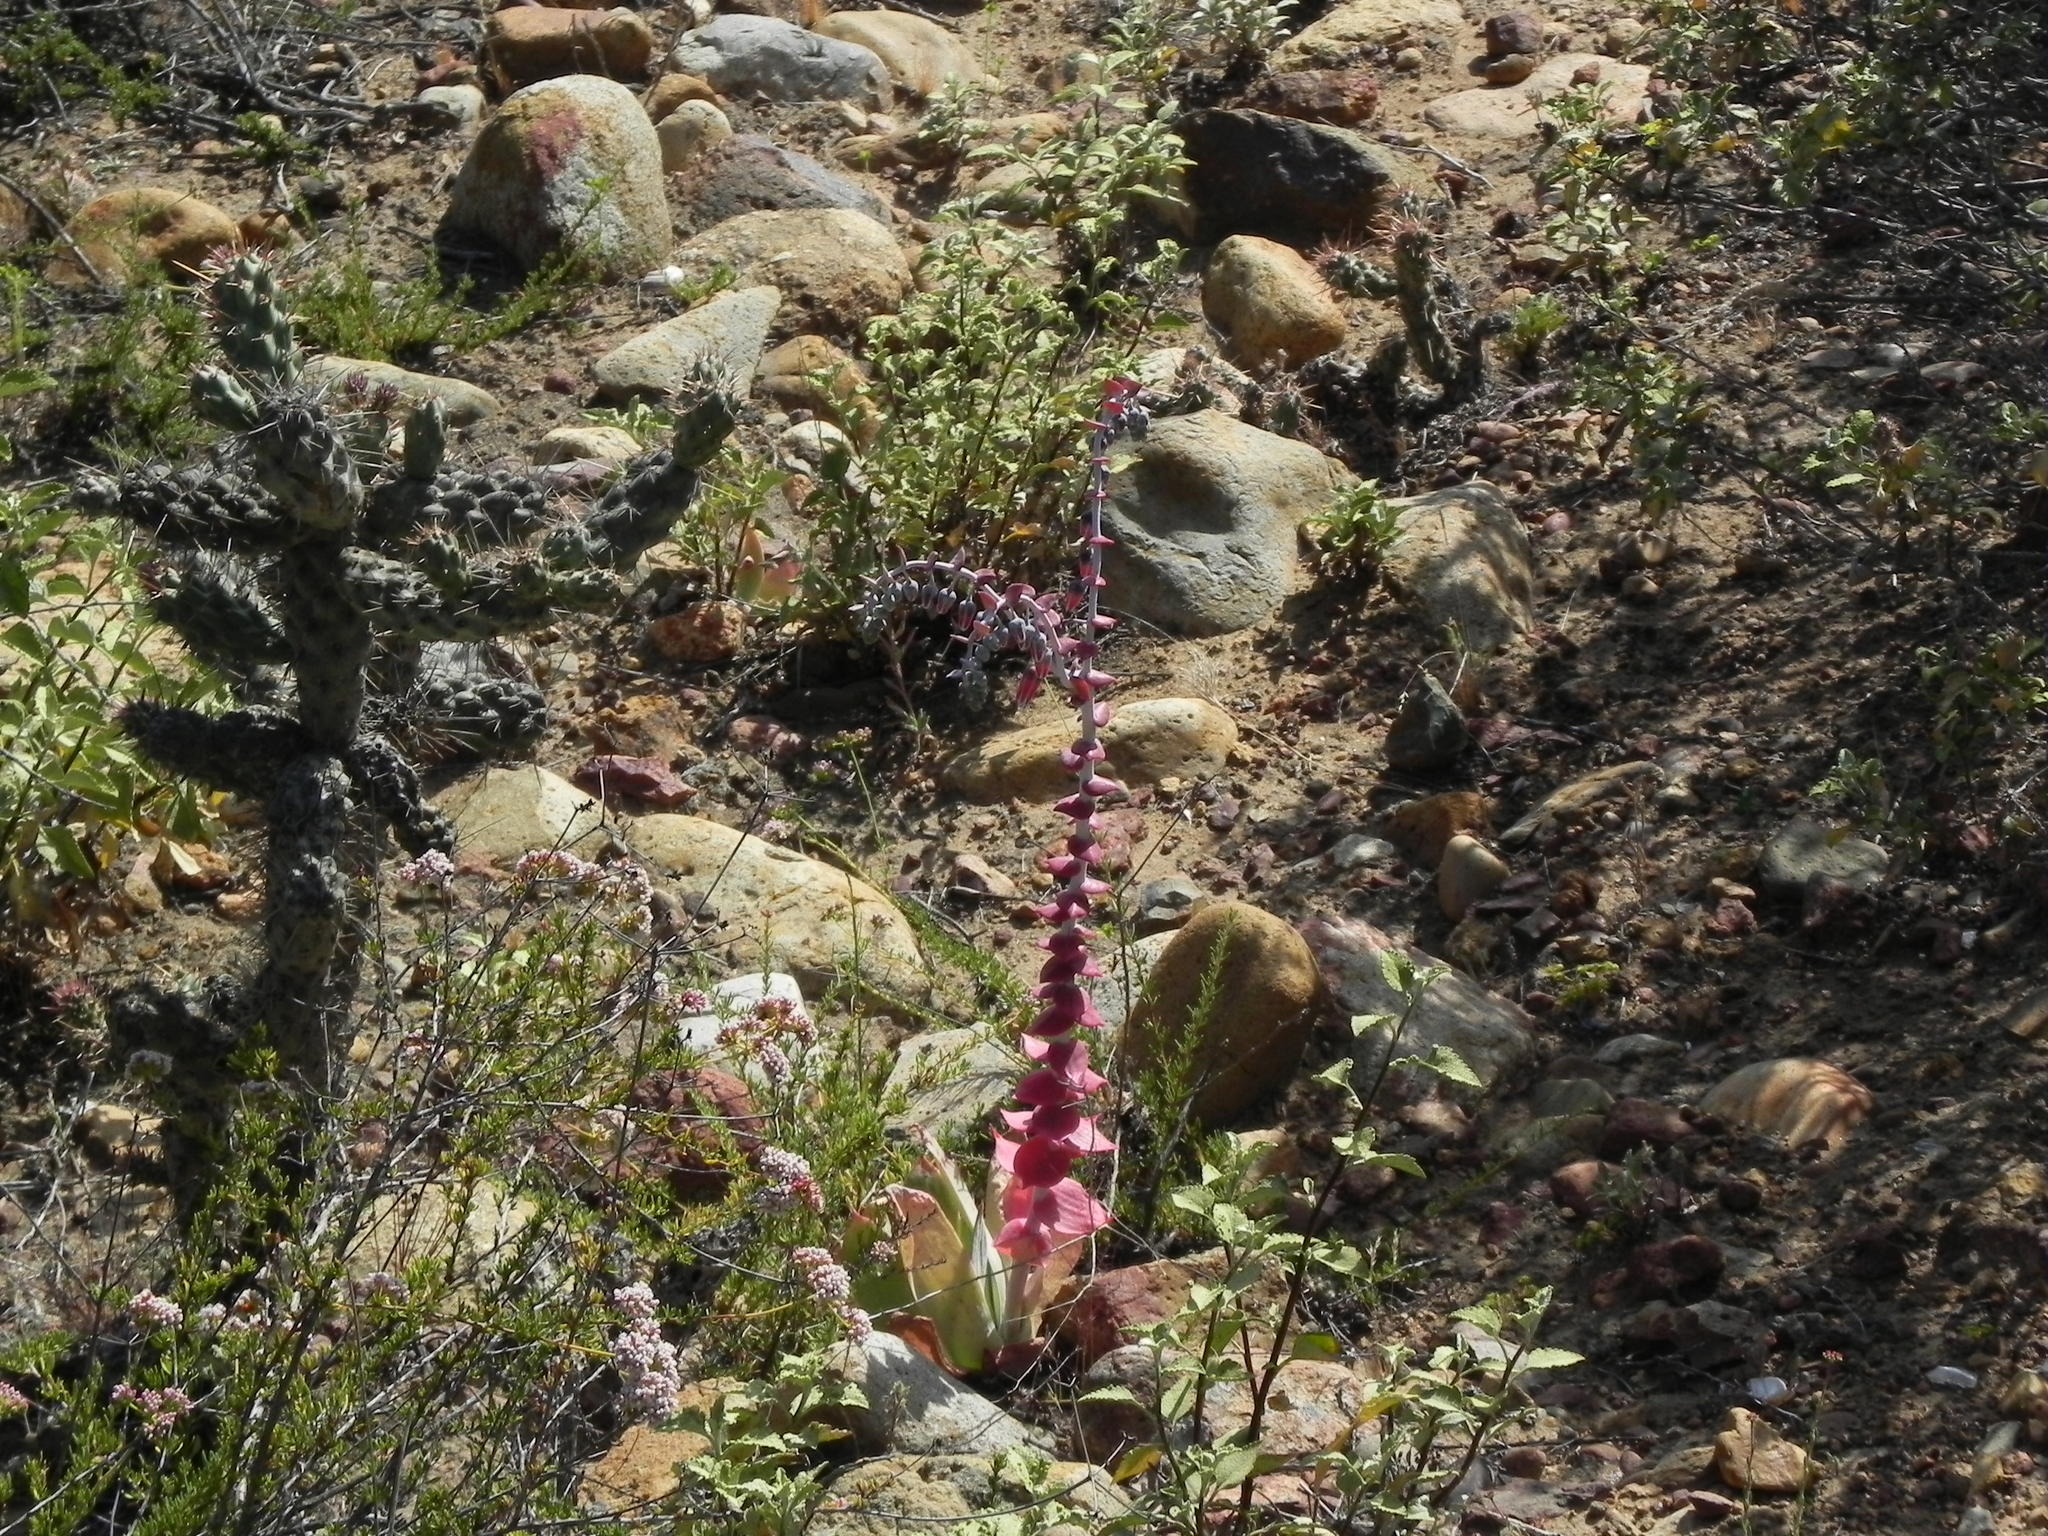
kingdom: Plantae
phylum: Tracheophyta
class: Magnoliopsida
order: Saxifragales
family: Crassulaceae
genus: Dudleya
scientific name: Dudleya pulverulenta
